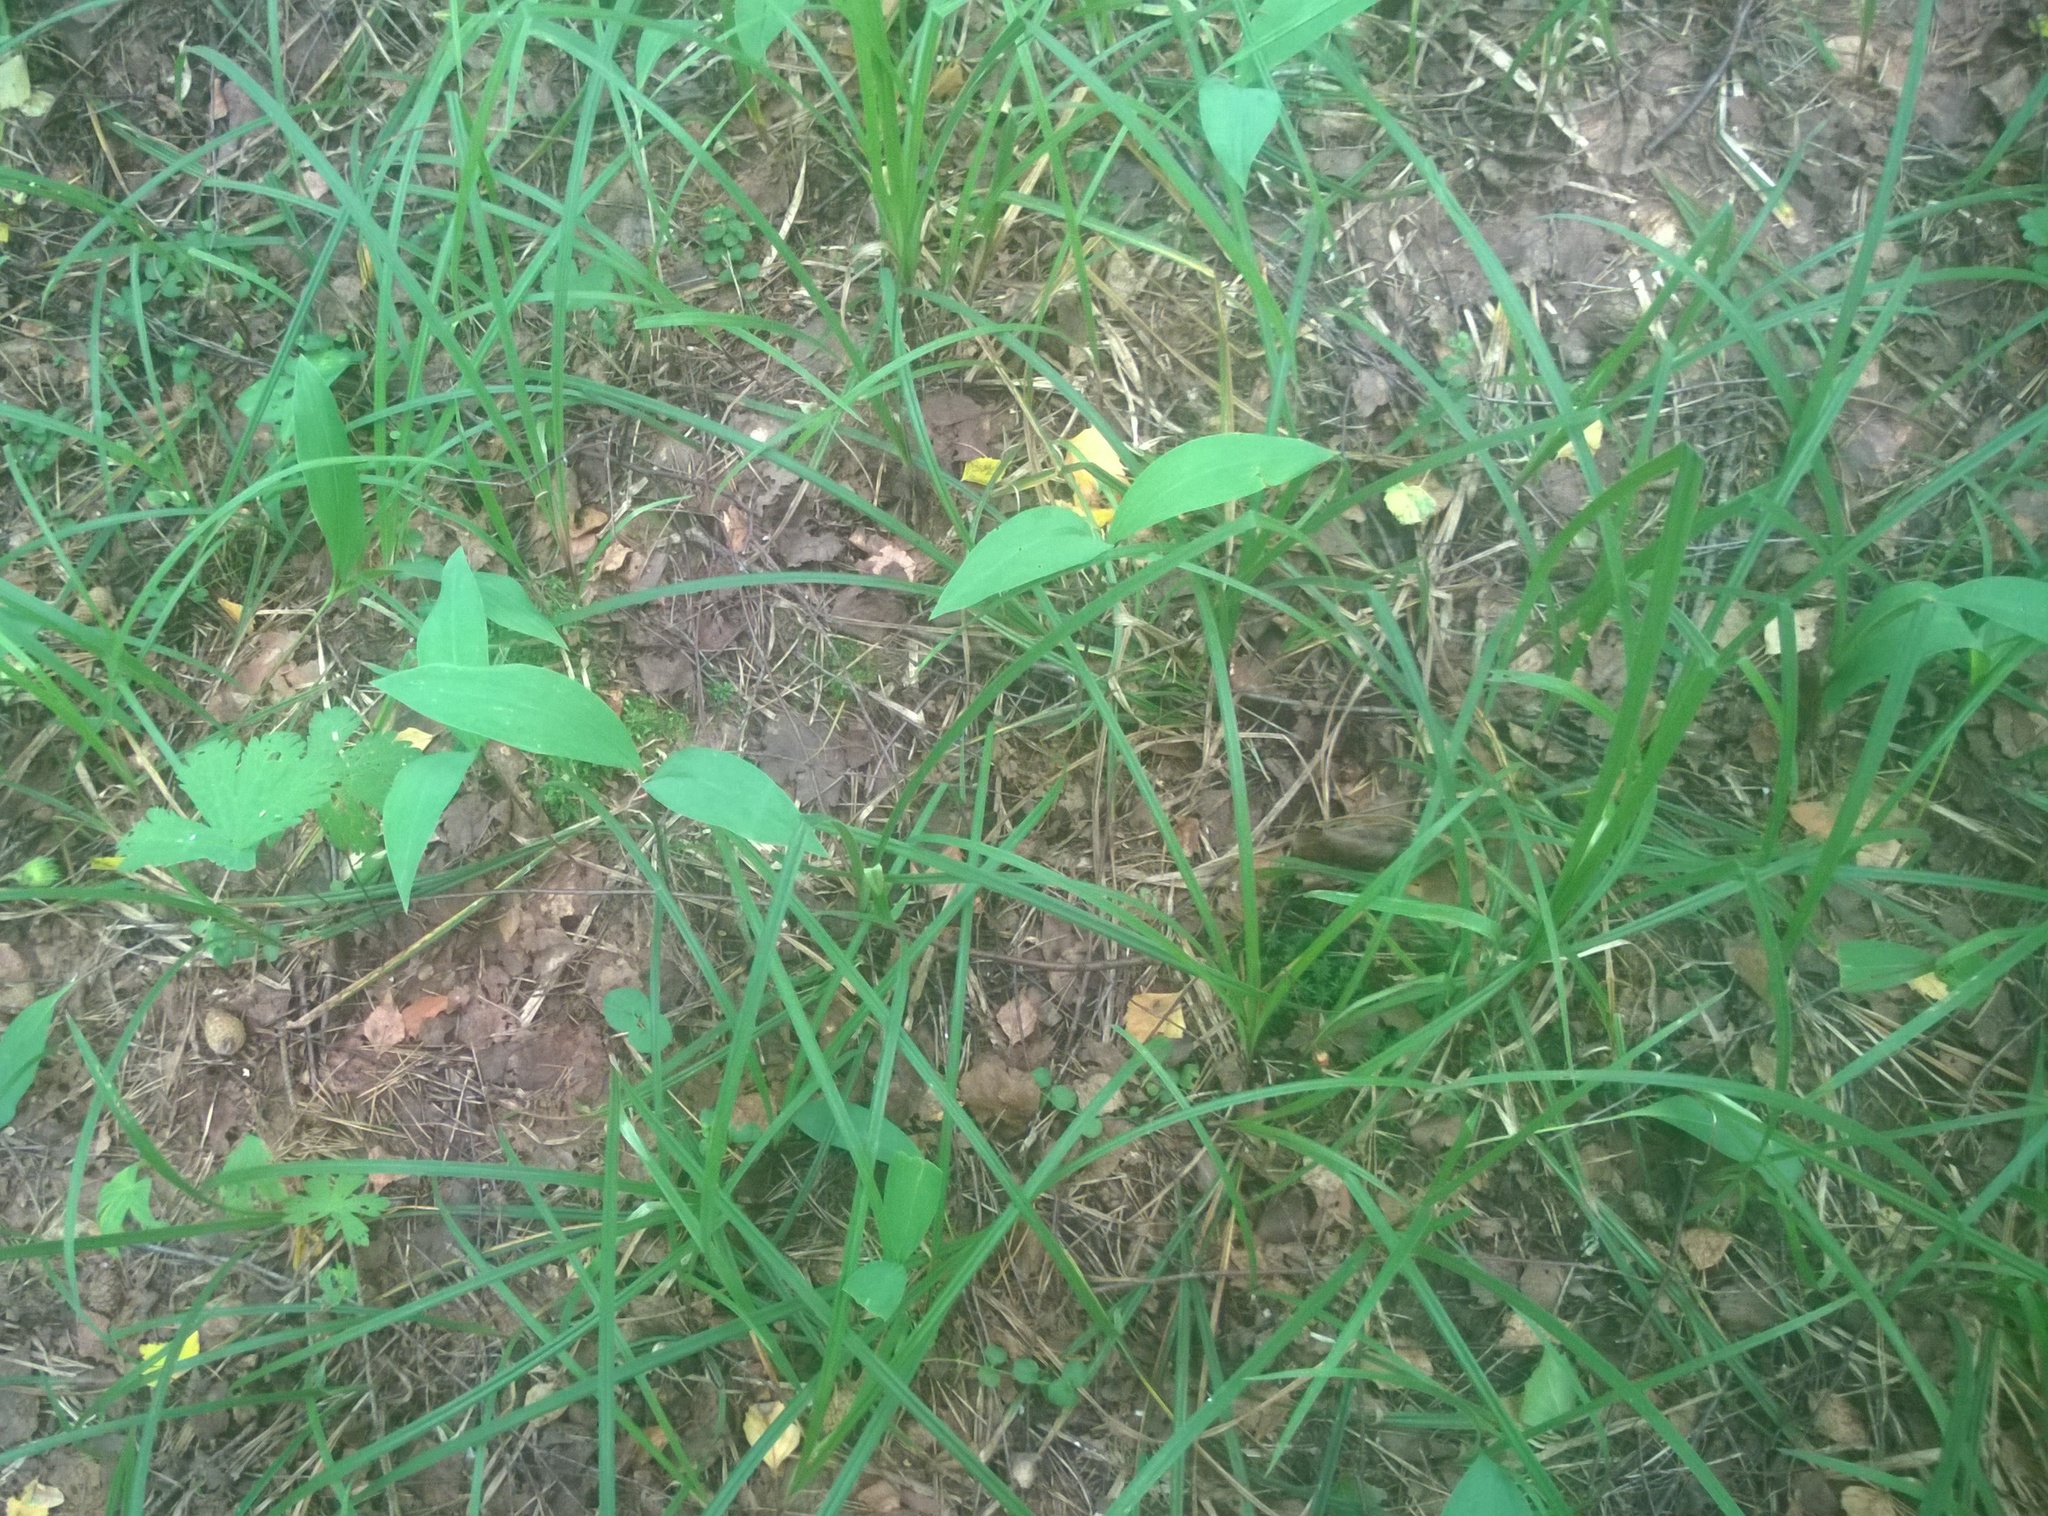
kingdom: Plantae
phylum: Tracheophyta
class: Liliopsida
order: Poales
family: Cyperaceae
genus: Carex
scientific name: Carex pilosa
